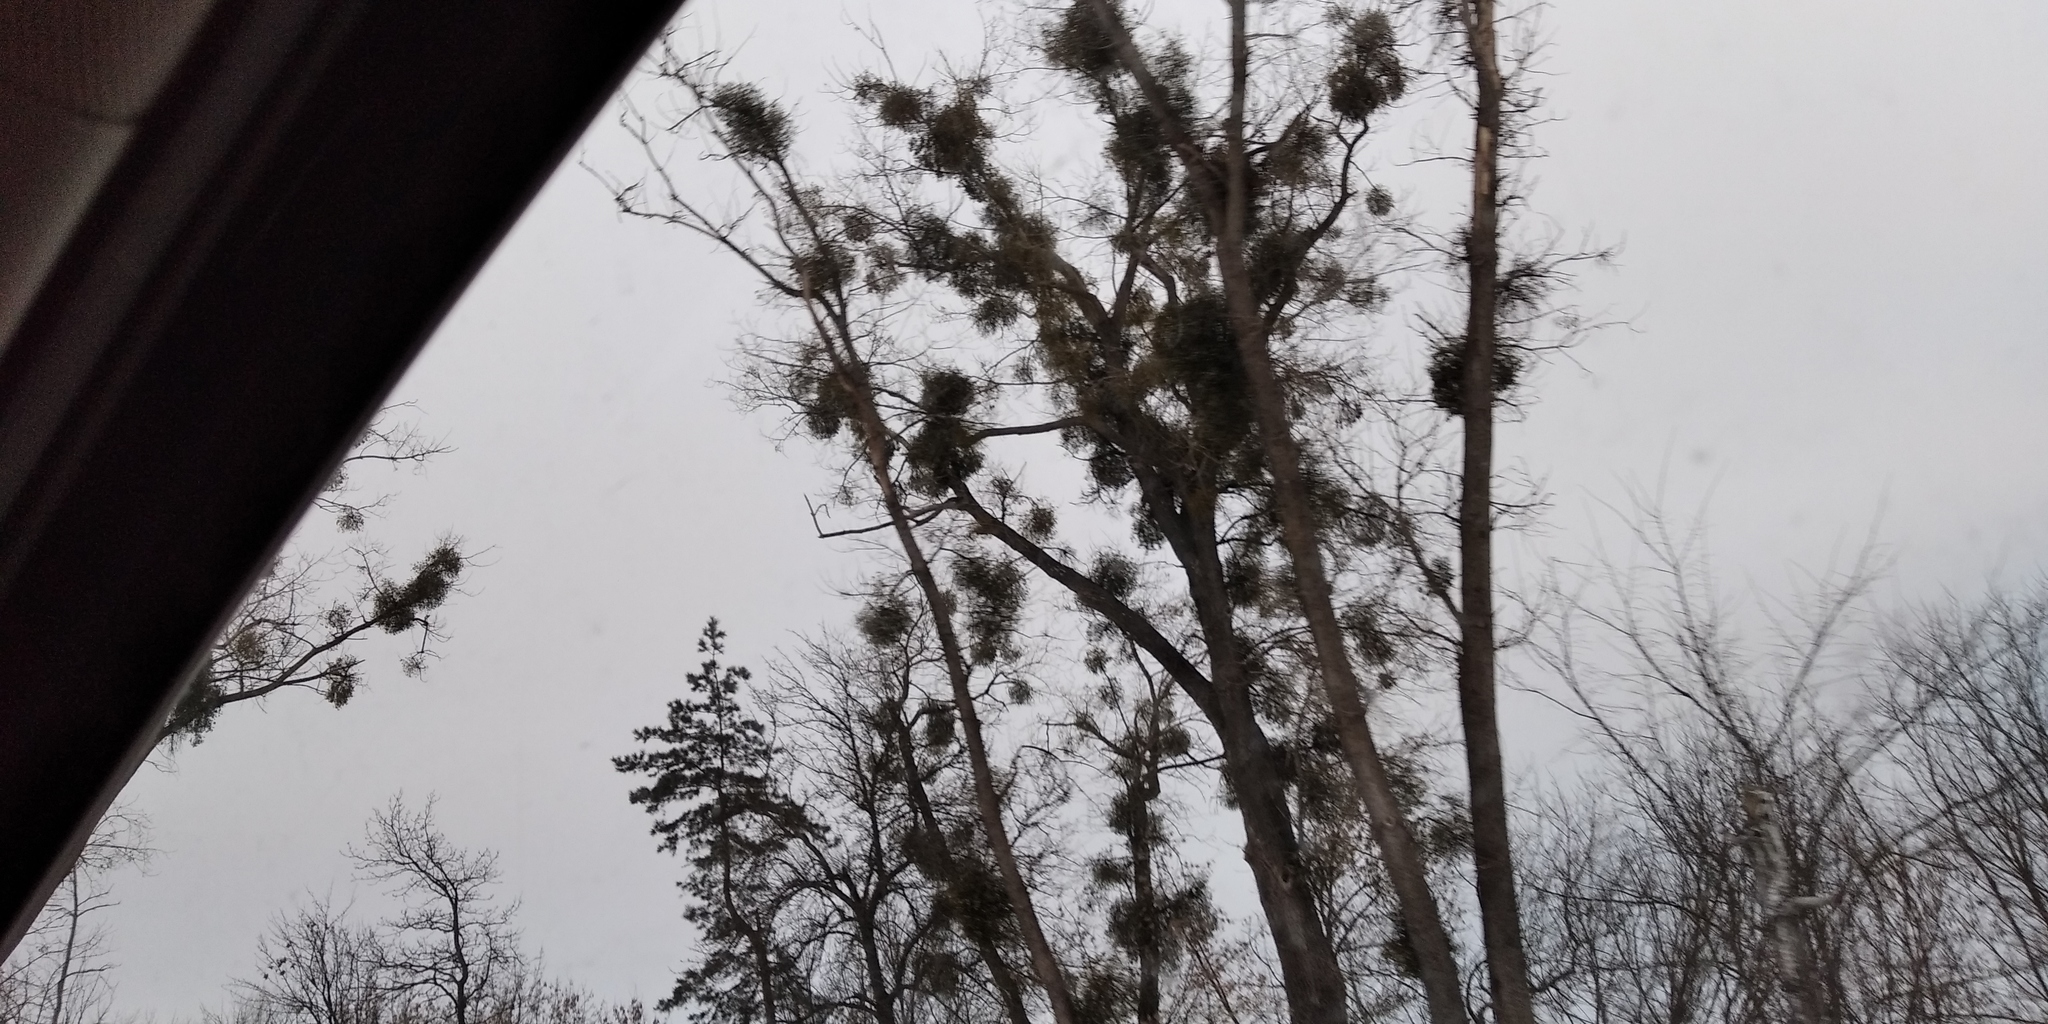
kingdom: Plantae
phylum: Tracheophyta
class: Magnoliopsida
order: Santalales
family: Viscaceae
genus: Viscum
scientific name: Viscum album
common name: Mistletoe
